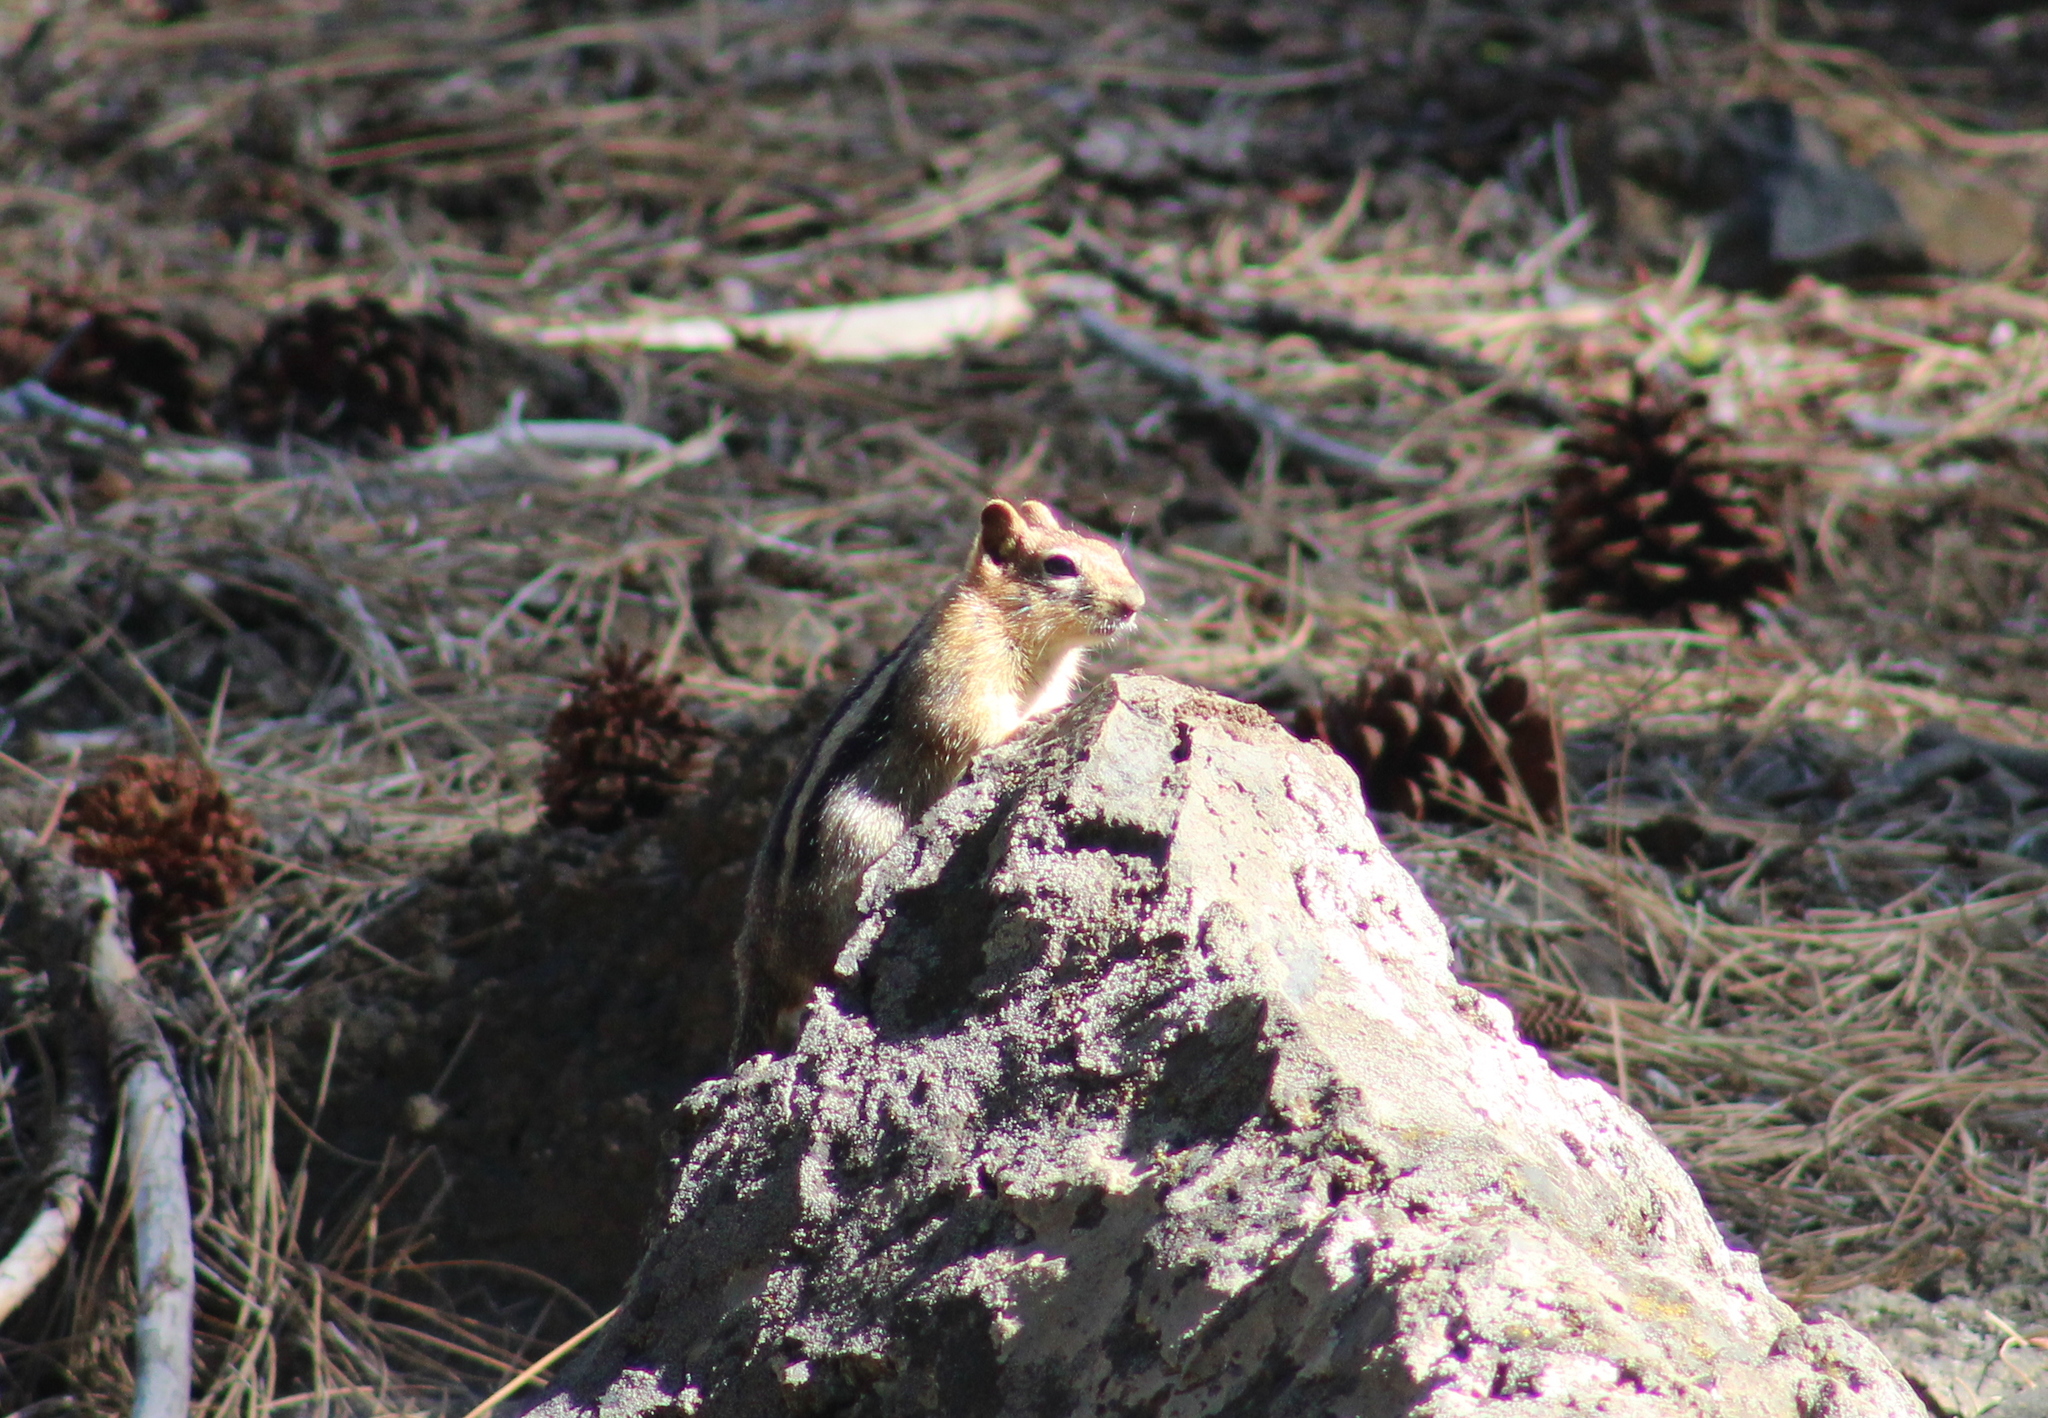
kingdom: Animalia
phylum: Chordata
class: Mammalia
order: Rodentia
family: Sciuridae
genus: Callospermophilus
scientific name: Callospermophilus lateralis
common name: Golden-mantled ground squirrel
